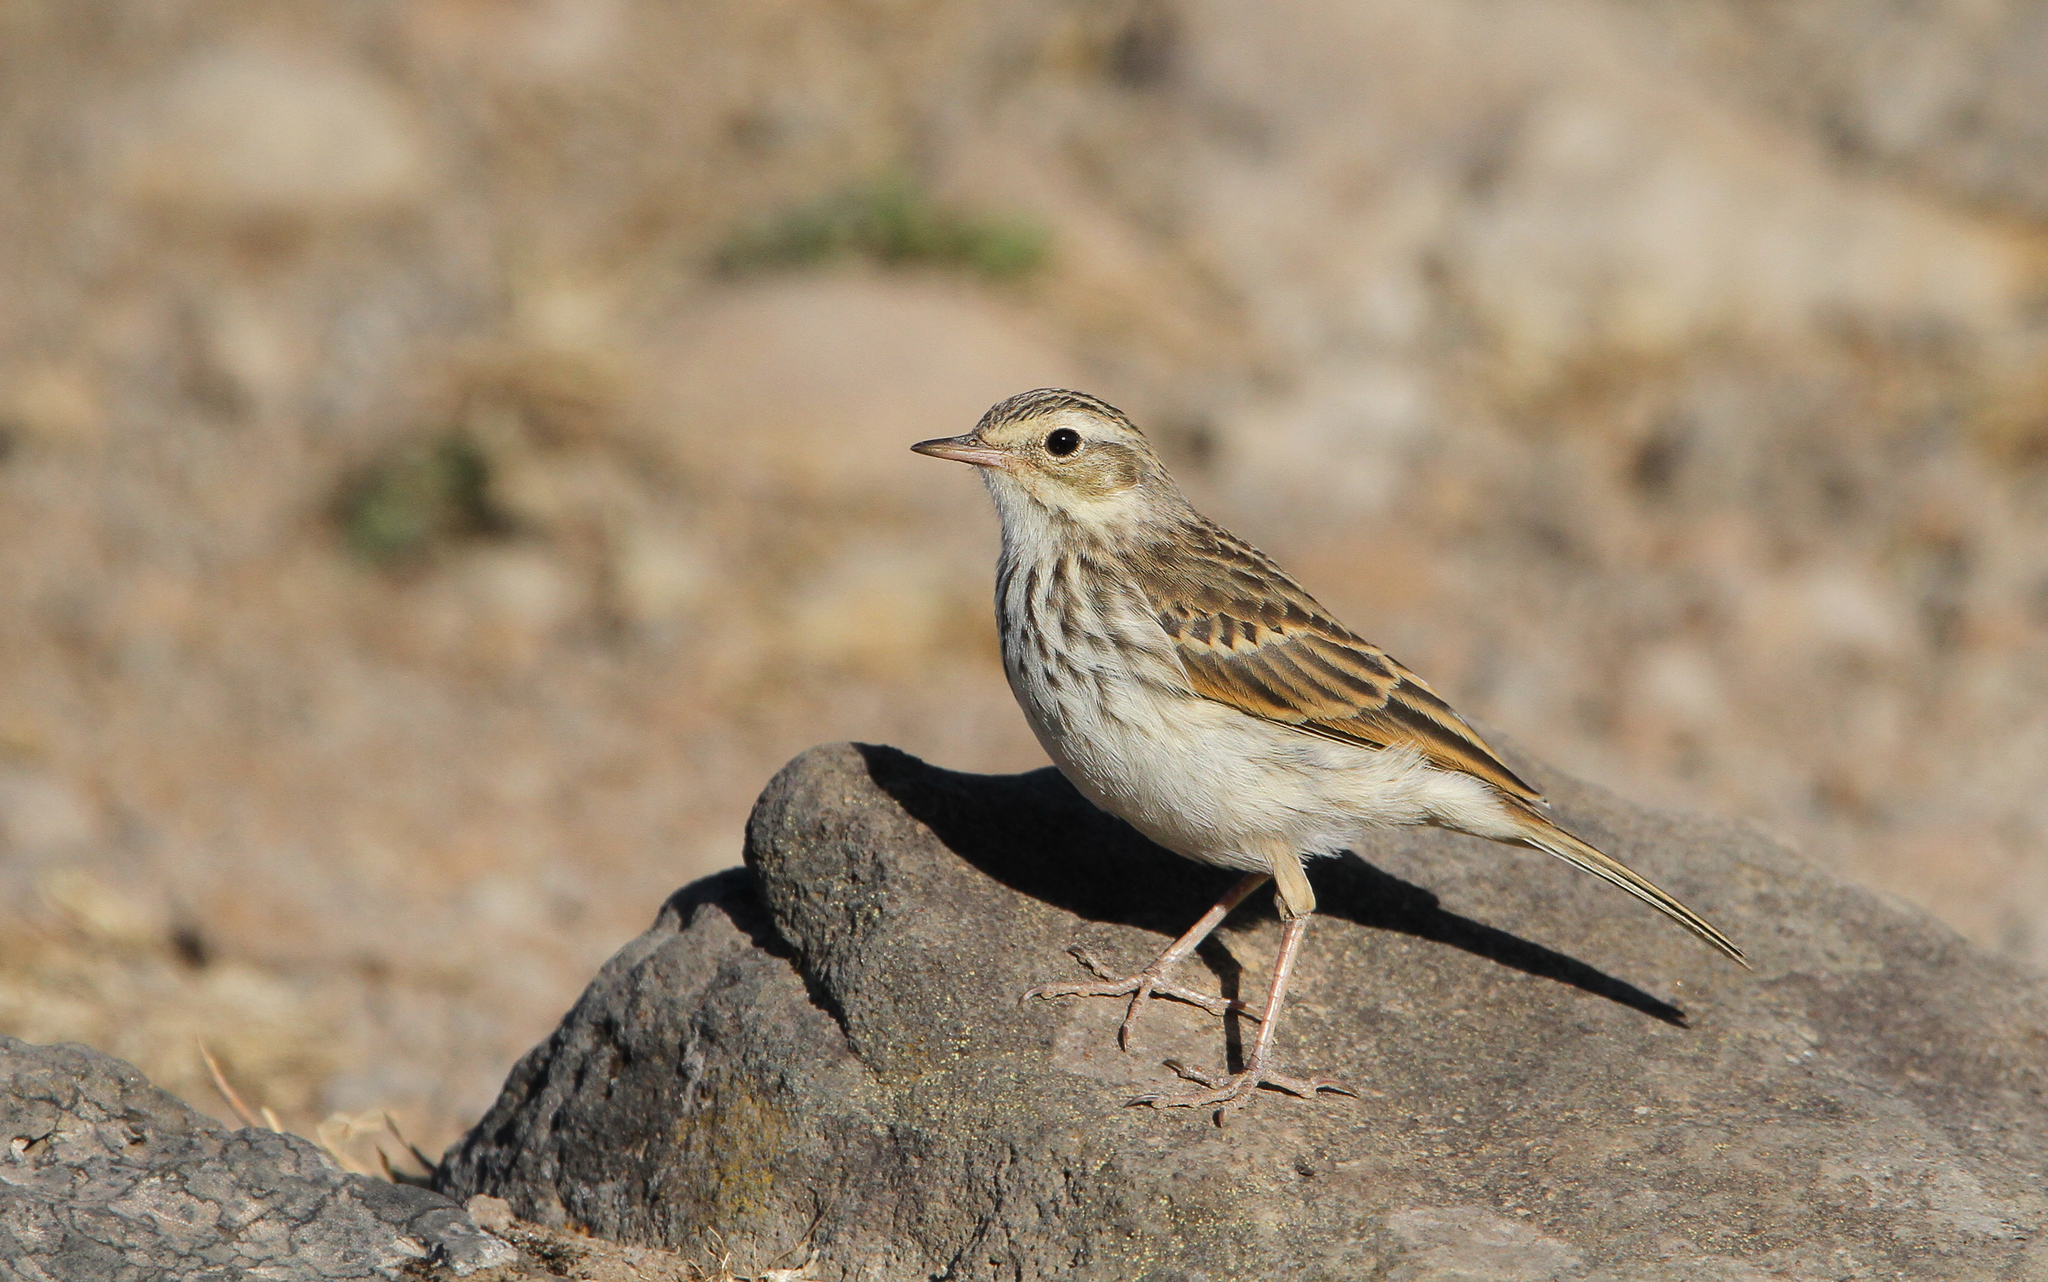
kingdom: Animalia
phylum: Chordata
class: Aves
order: Passeriformes
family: Motacillidae
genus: Anthus
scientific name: Anthus berthelotii
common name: Berthelot's pipit
